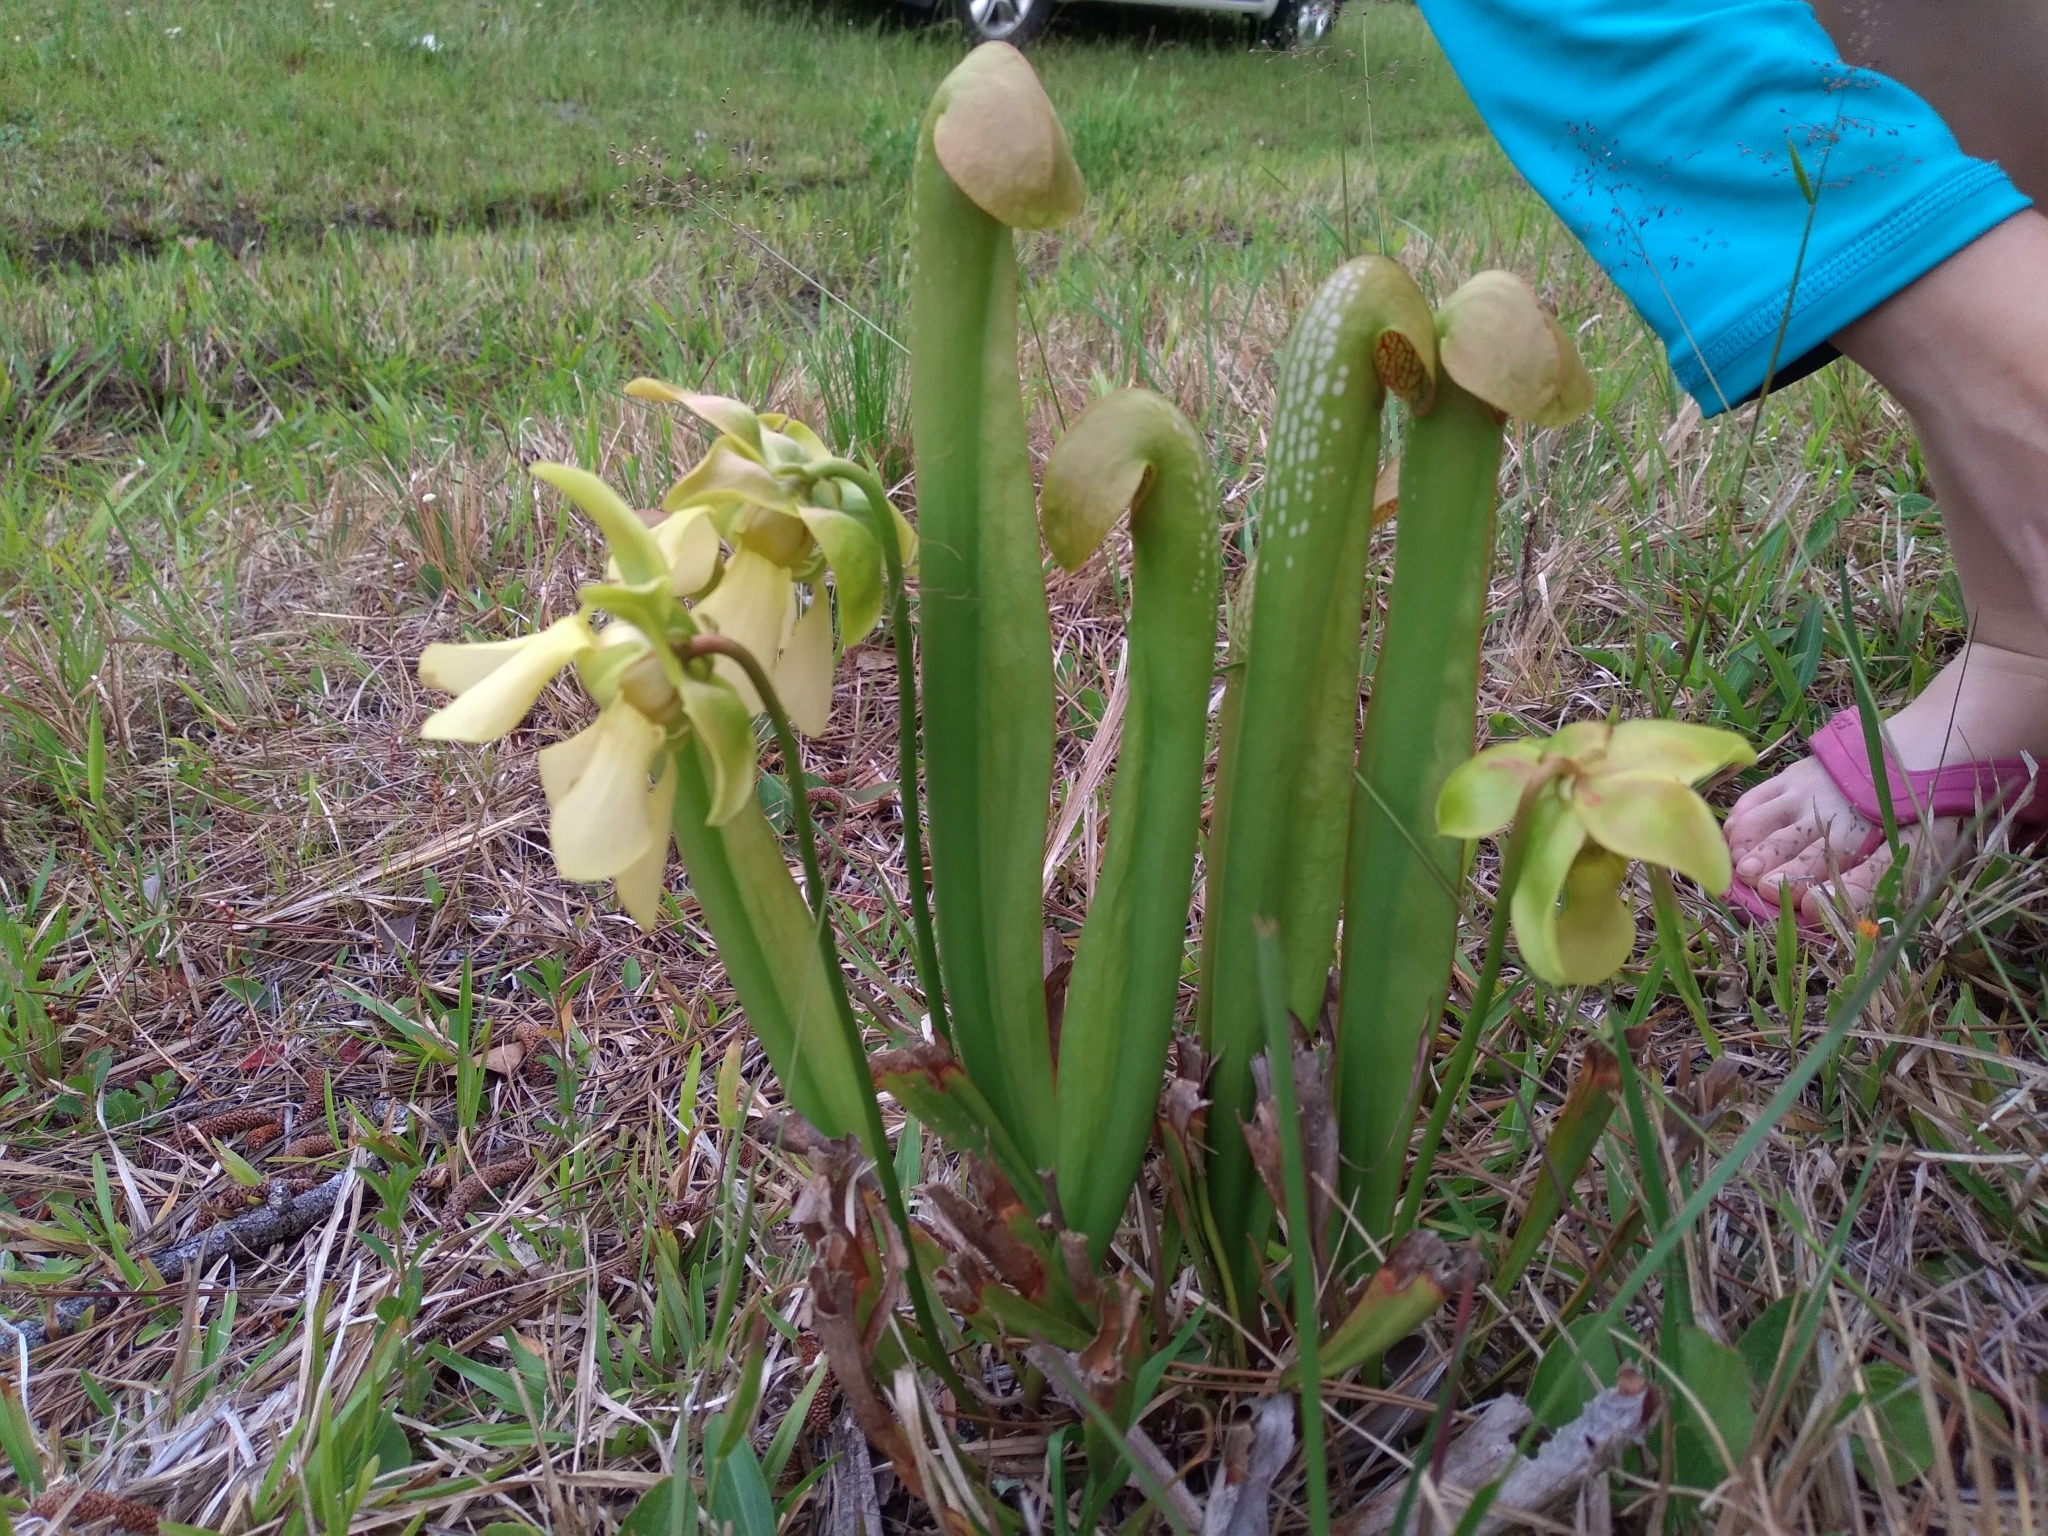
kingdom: Plantae
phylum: Tracheophyta
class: Magnoliopsida
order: Ericales
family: Sarraceniaceae
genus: Sarracenia
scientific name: Sarracenia minor
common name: Rainhat-trumpet
